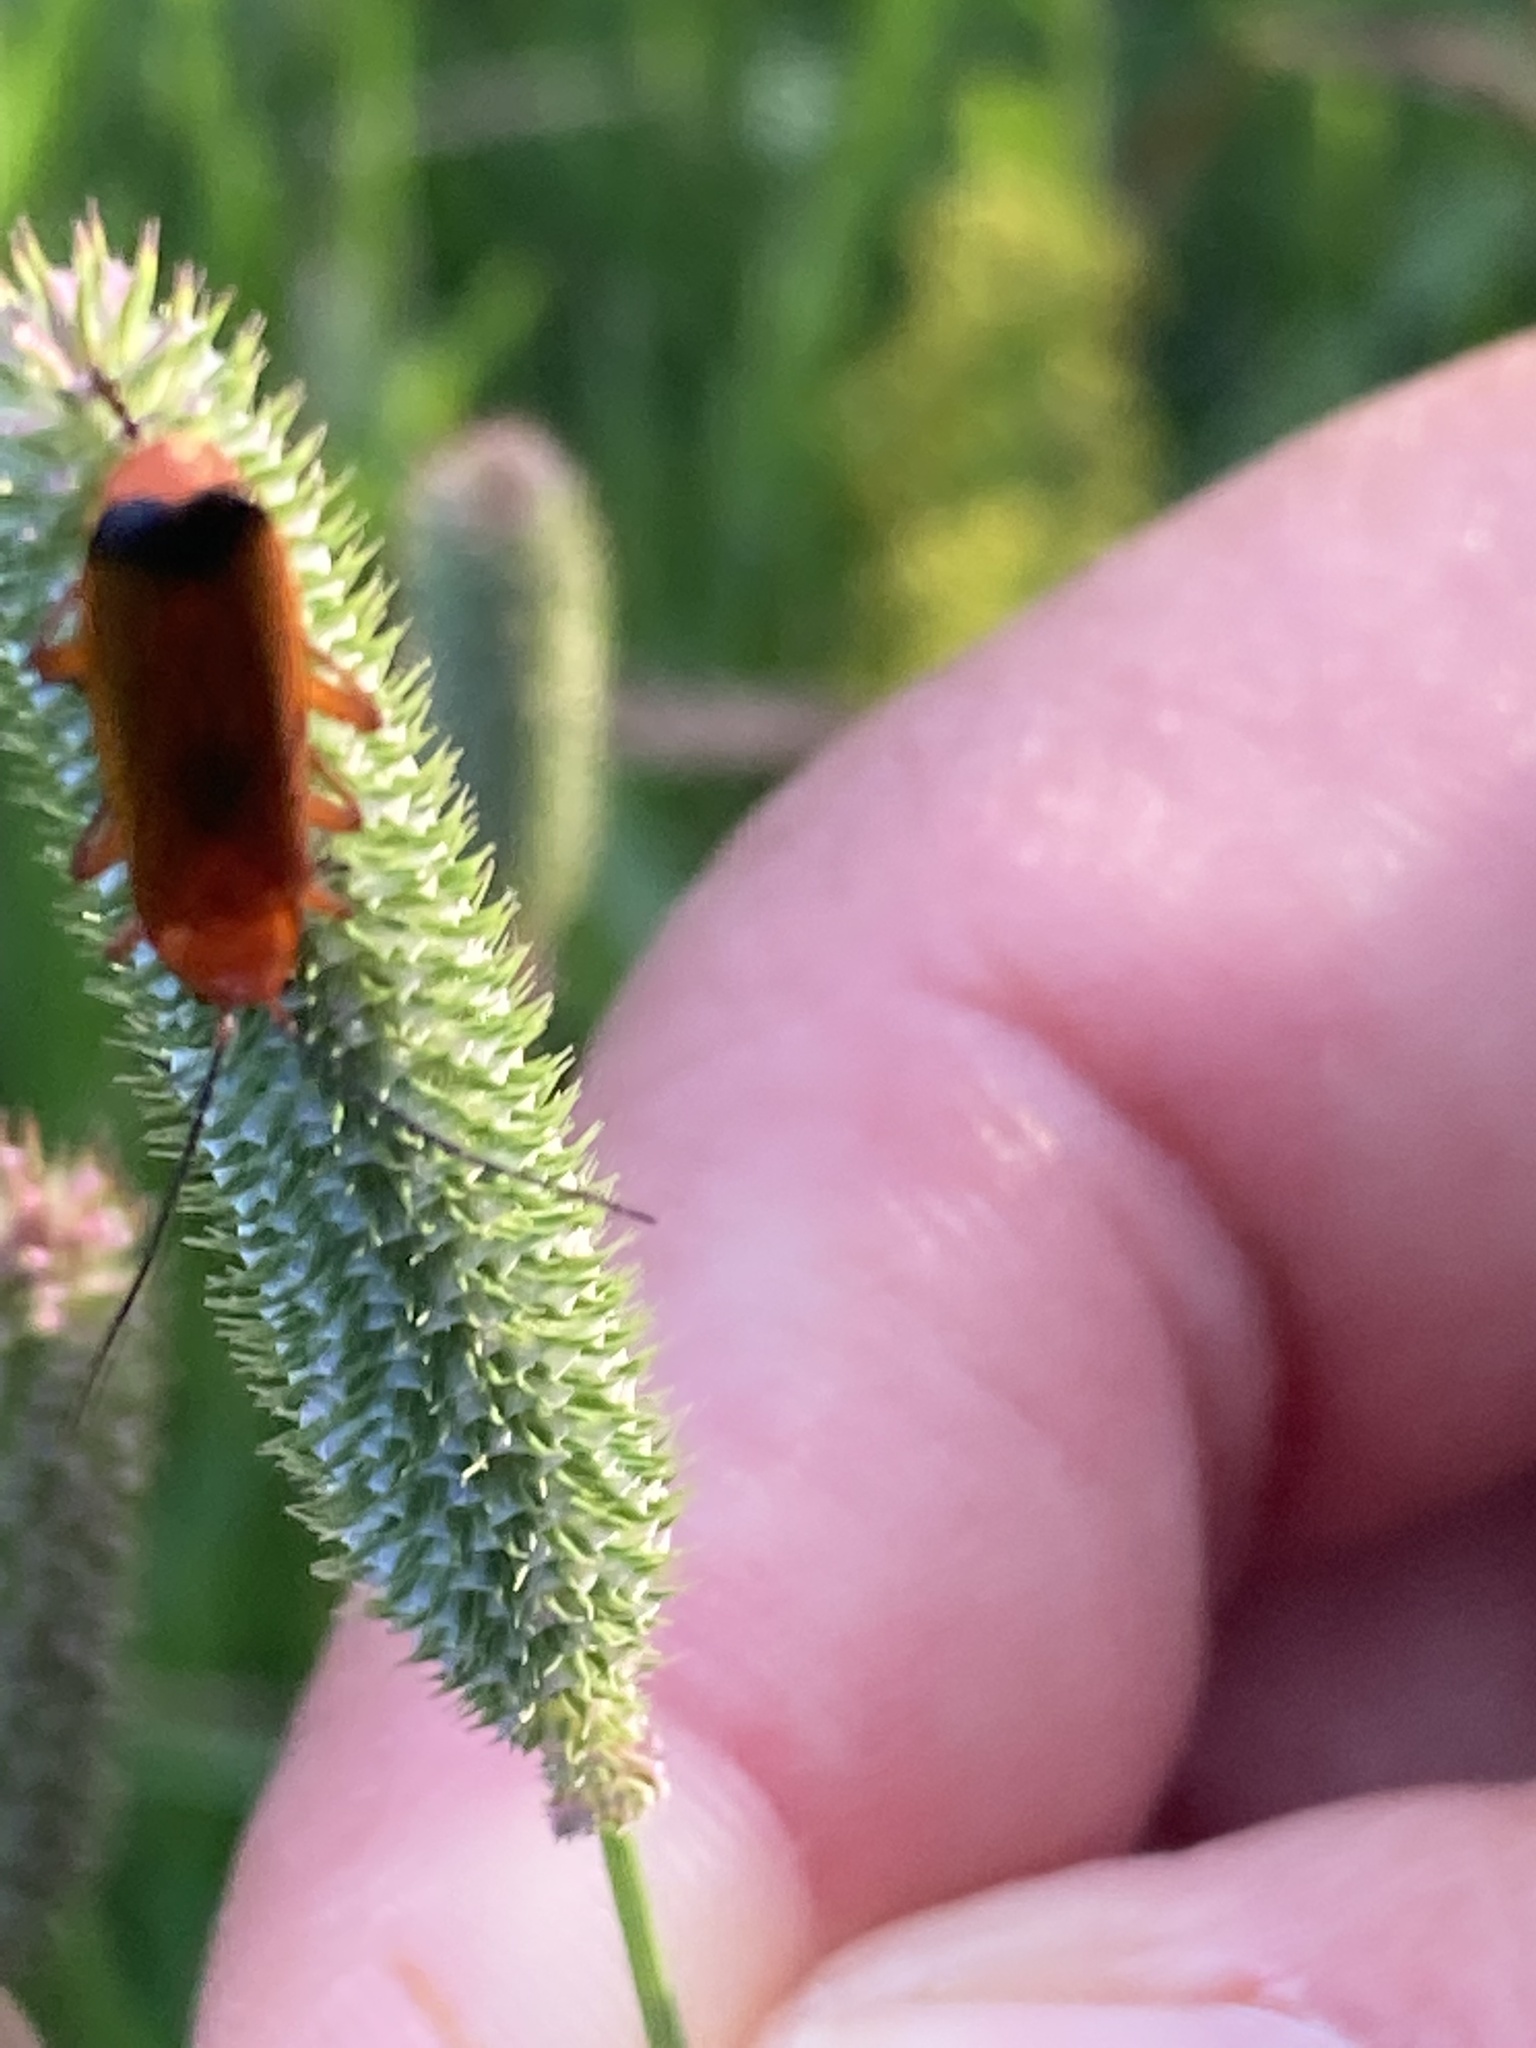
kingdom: Animalia
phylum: Arthropoda
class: Insecta
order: Coleoptera
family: Cantharidae
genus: Rhagonycha
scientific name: Rhagonycha fulva
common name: Common red soldier beetle
